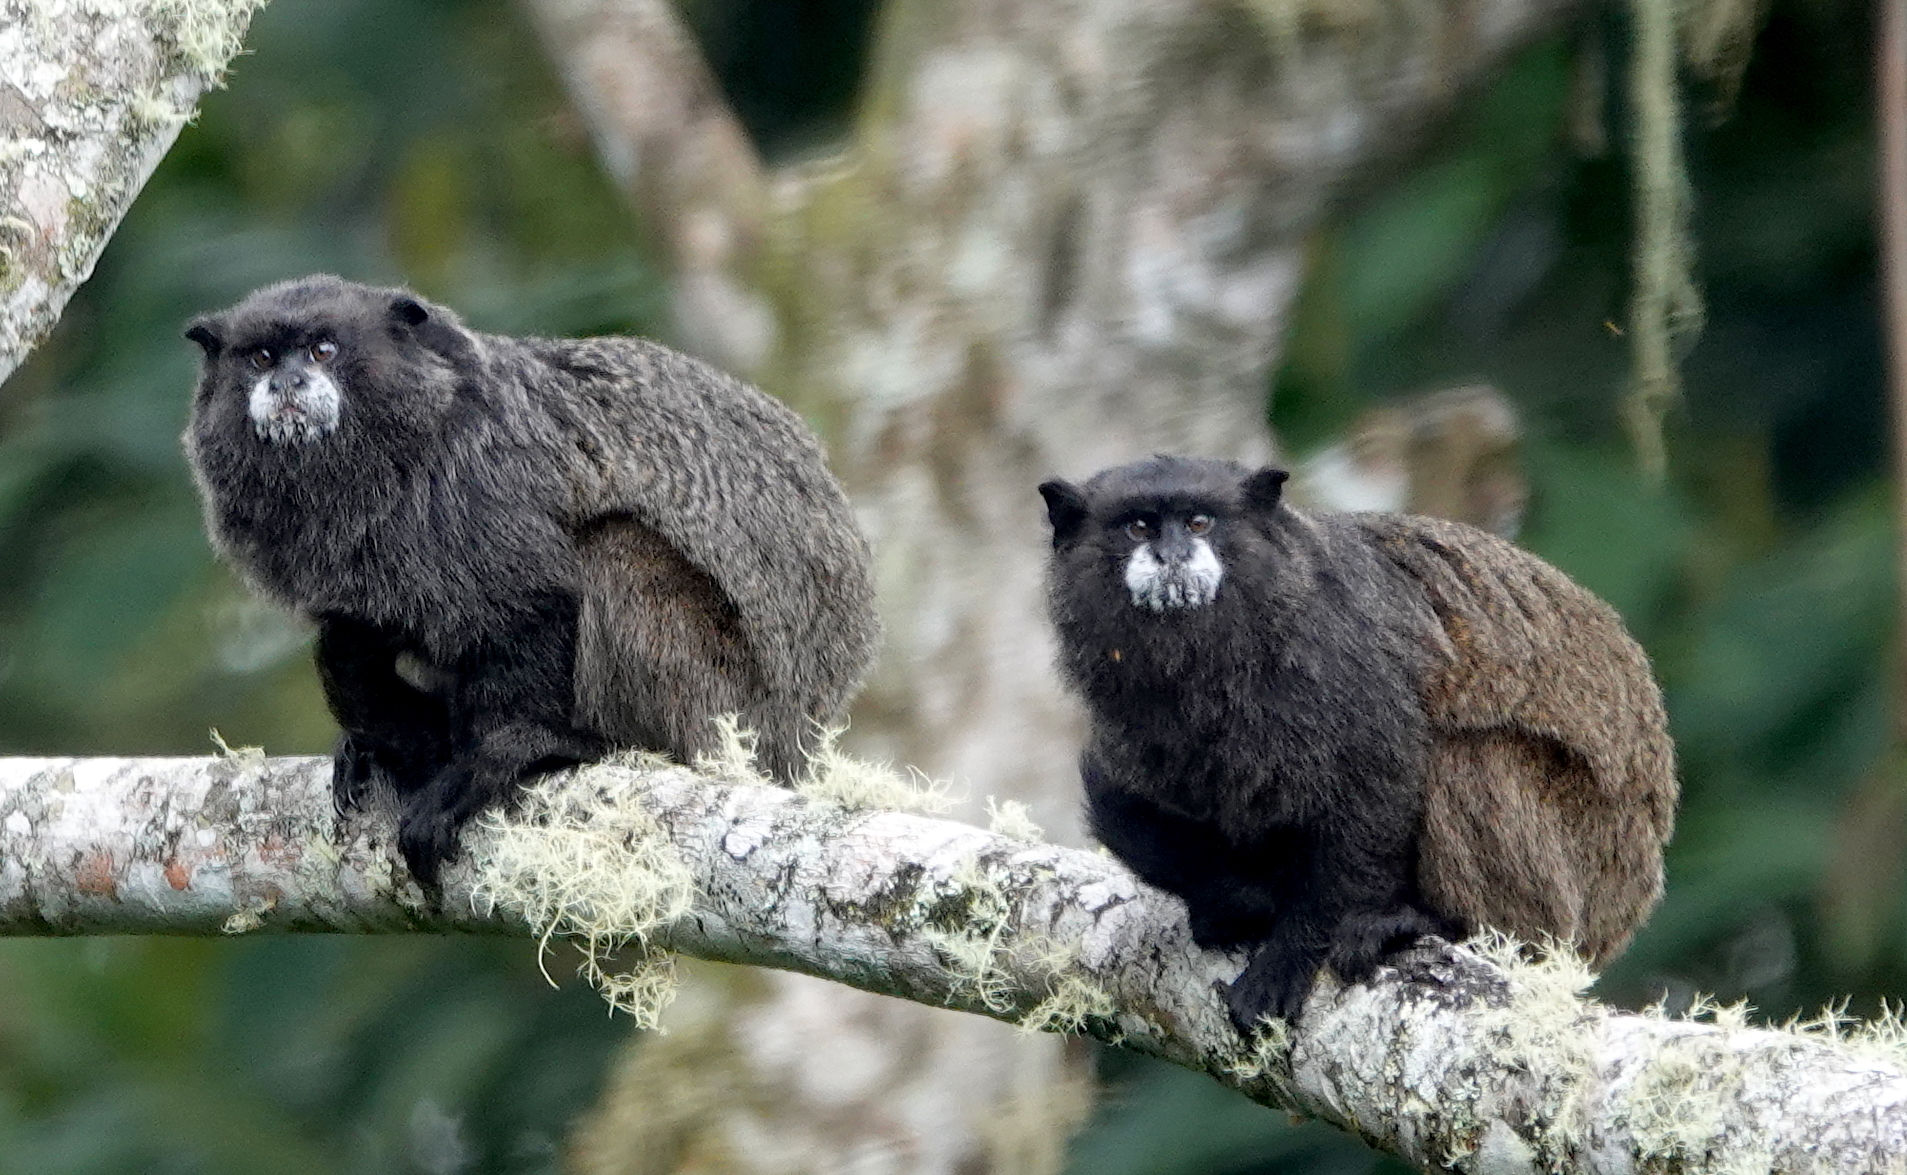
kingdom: Animalia
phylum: Chordata
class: Mammalia
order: Primates
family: Callitrichidae
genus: Leontocebus
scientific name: Leontocebus nigricollis
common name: Black-mantled tamarin
